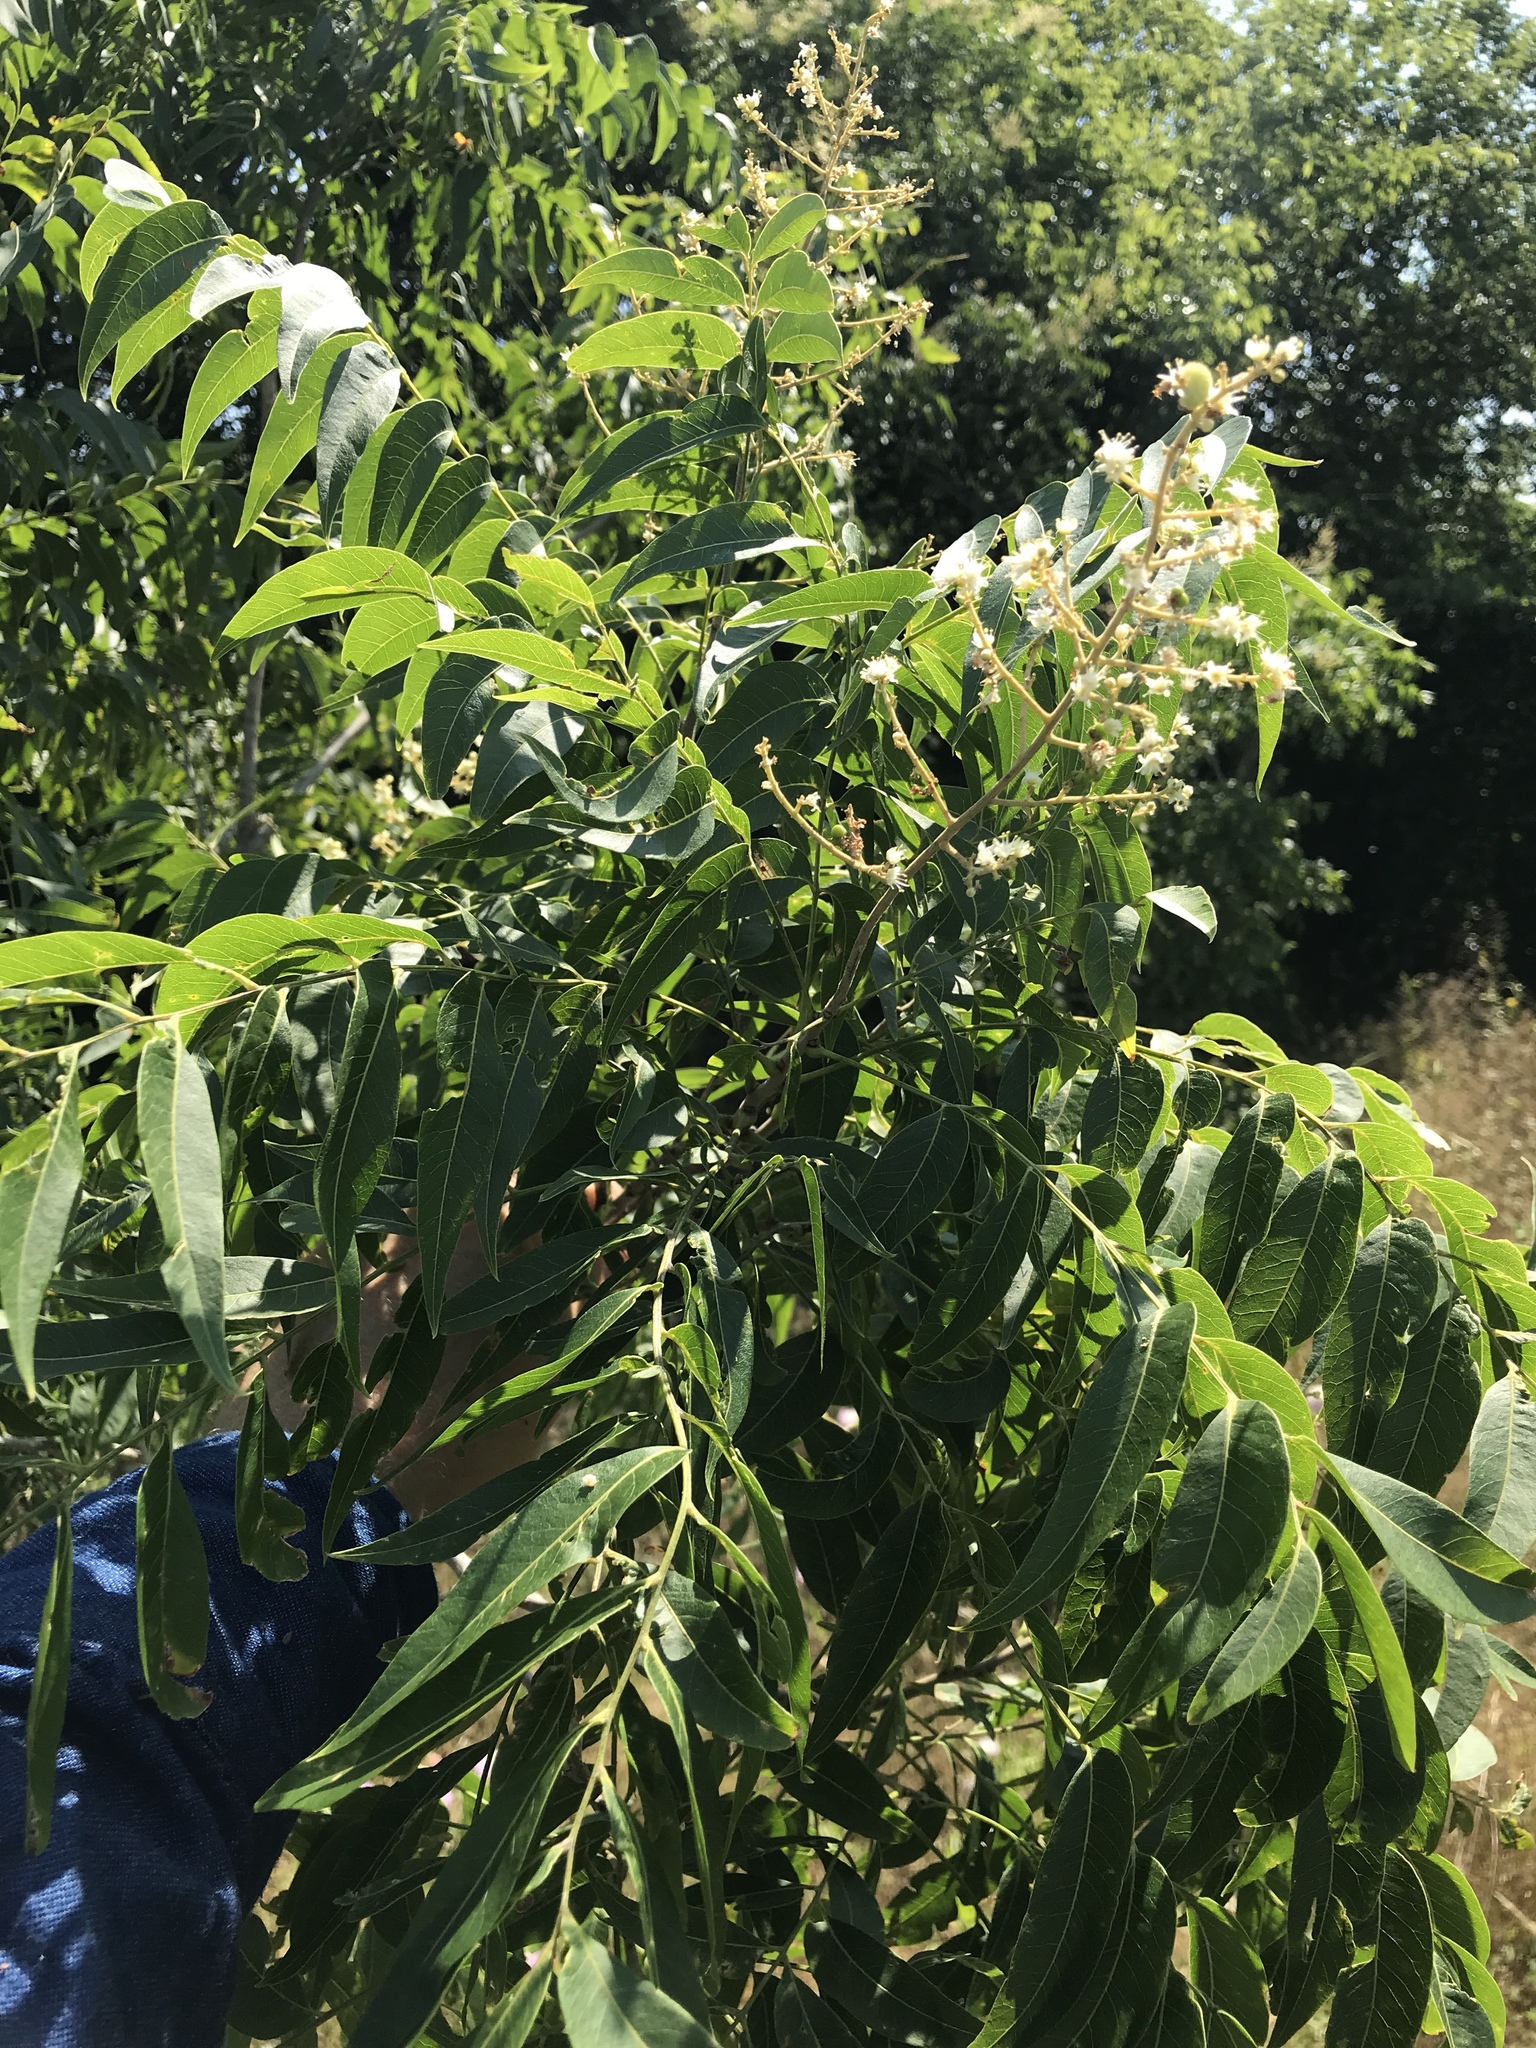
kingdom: Plantae
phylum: Tracheophyta
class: Magnoliopsida
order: Sapindales
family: Sapindaceae
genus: Sapindus
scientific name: Sapindus drummondii
